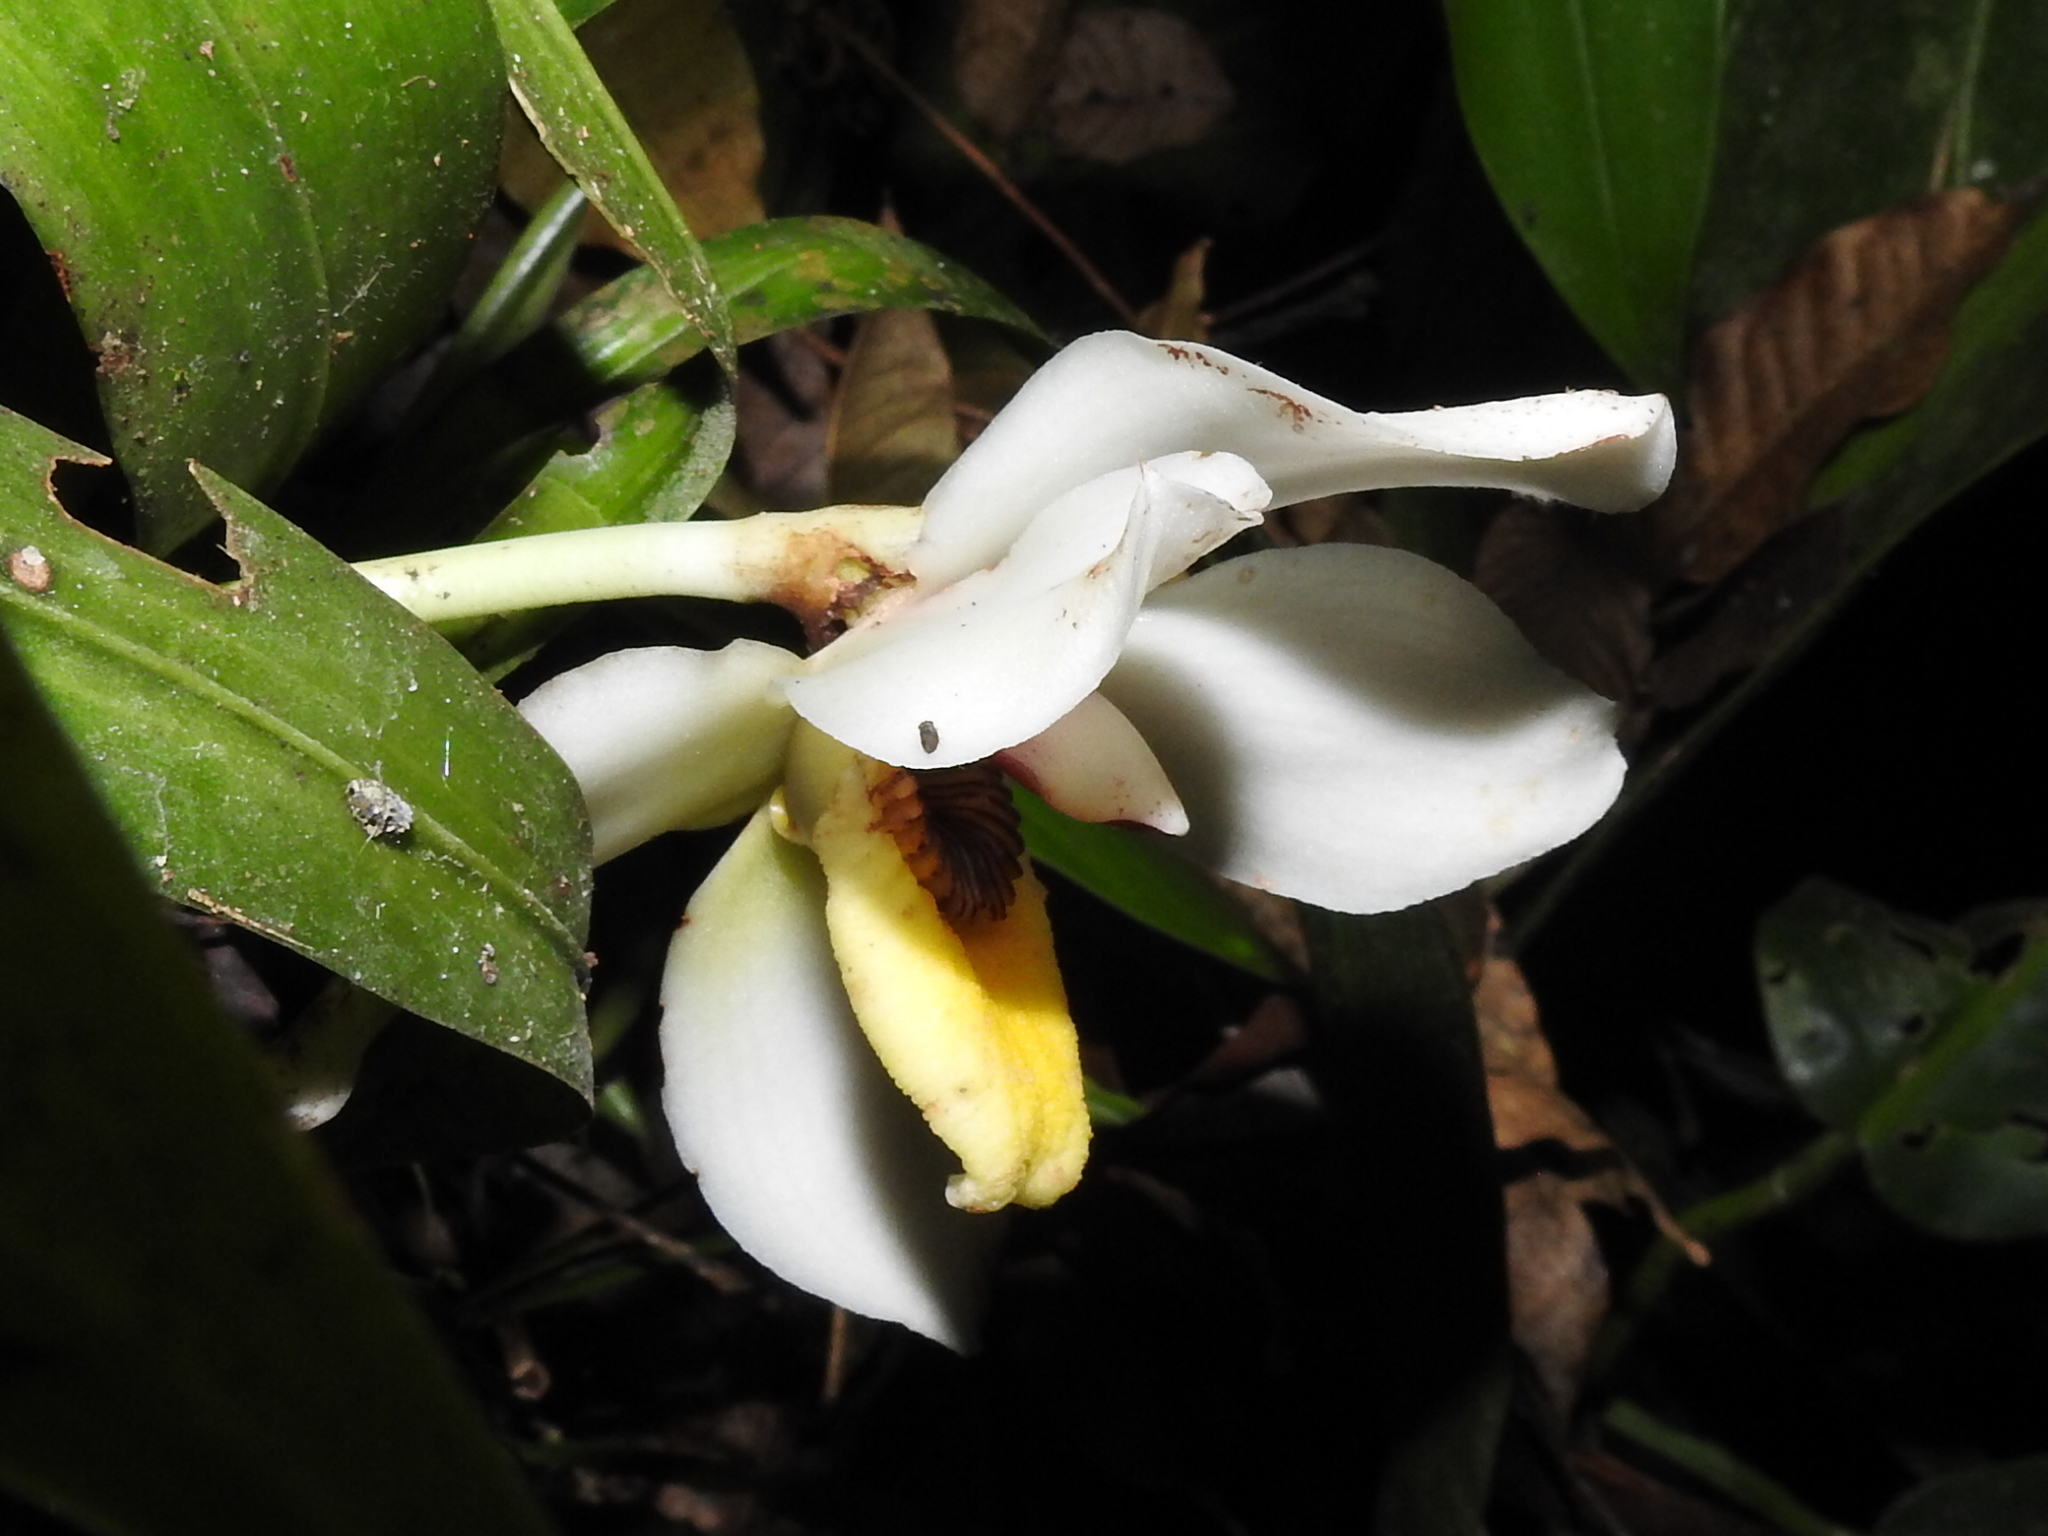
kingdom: Plantae
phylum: Tracheophyta
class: Liliopsida
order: Asparagales
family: Orchidaceae
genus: Pescatoria
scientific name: Pescatoria cerina
